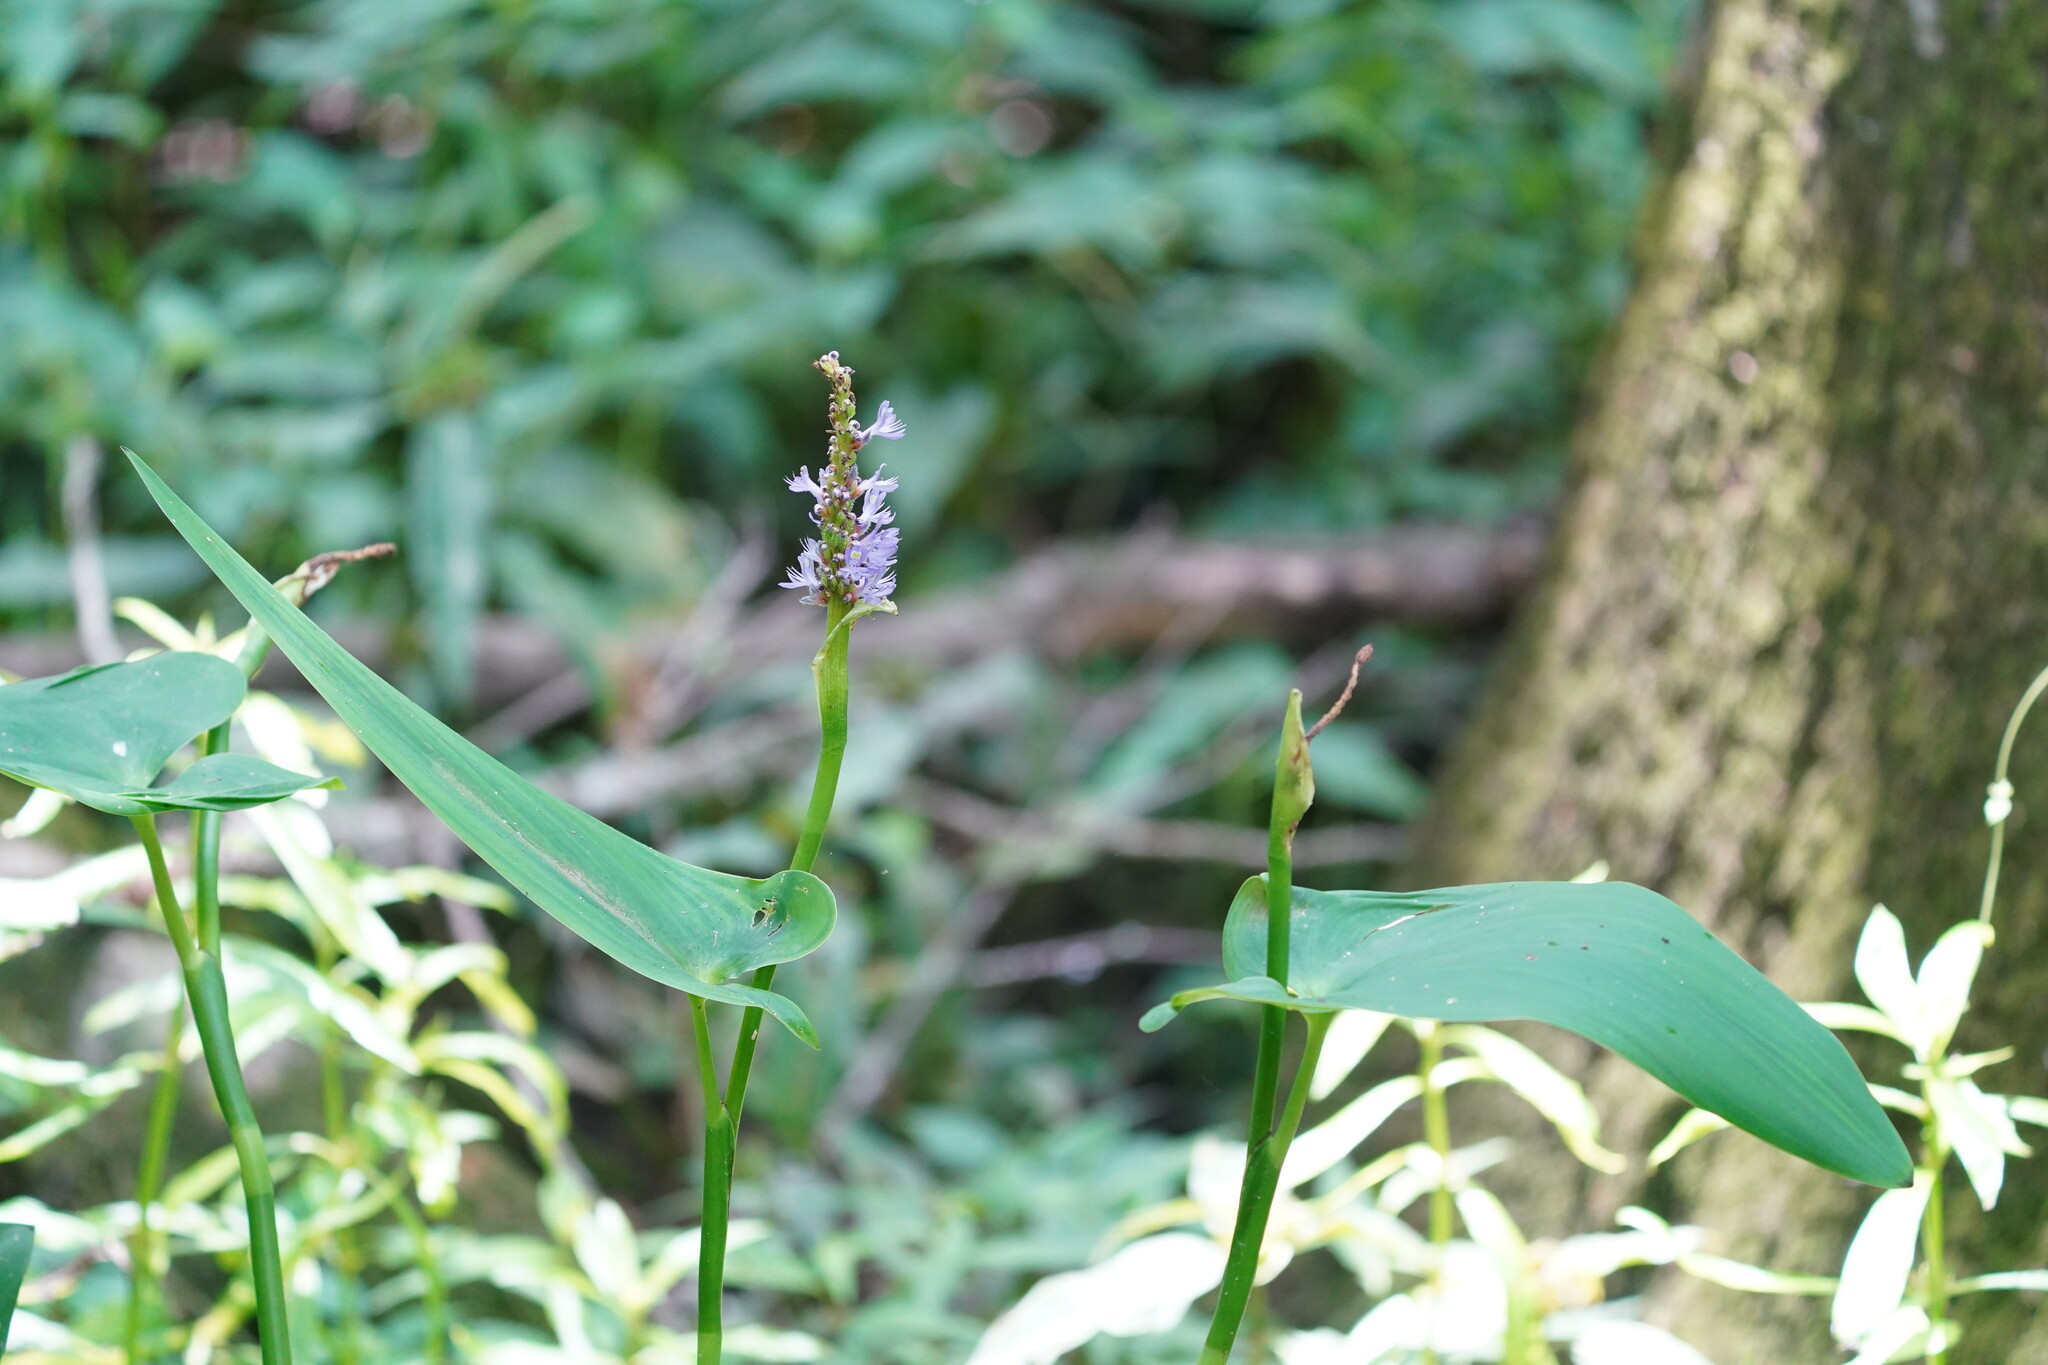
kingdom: Plantae
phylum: Tracheophyta
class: Liliopsida
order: Commelinales
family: Pontederiaceae
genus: Pontederia
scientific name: Pontederia cordata
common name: Pickerelweed
